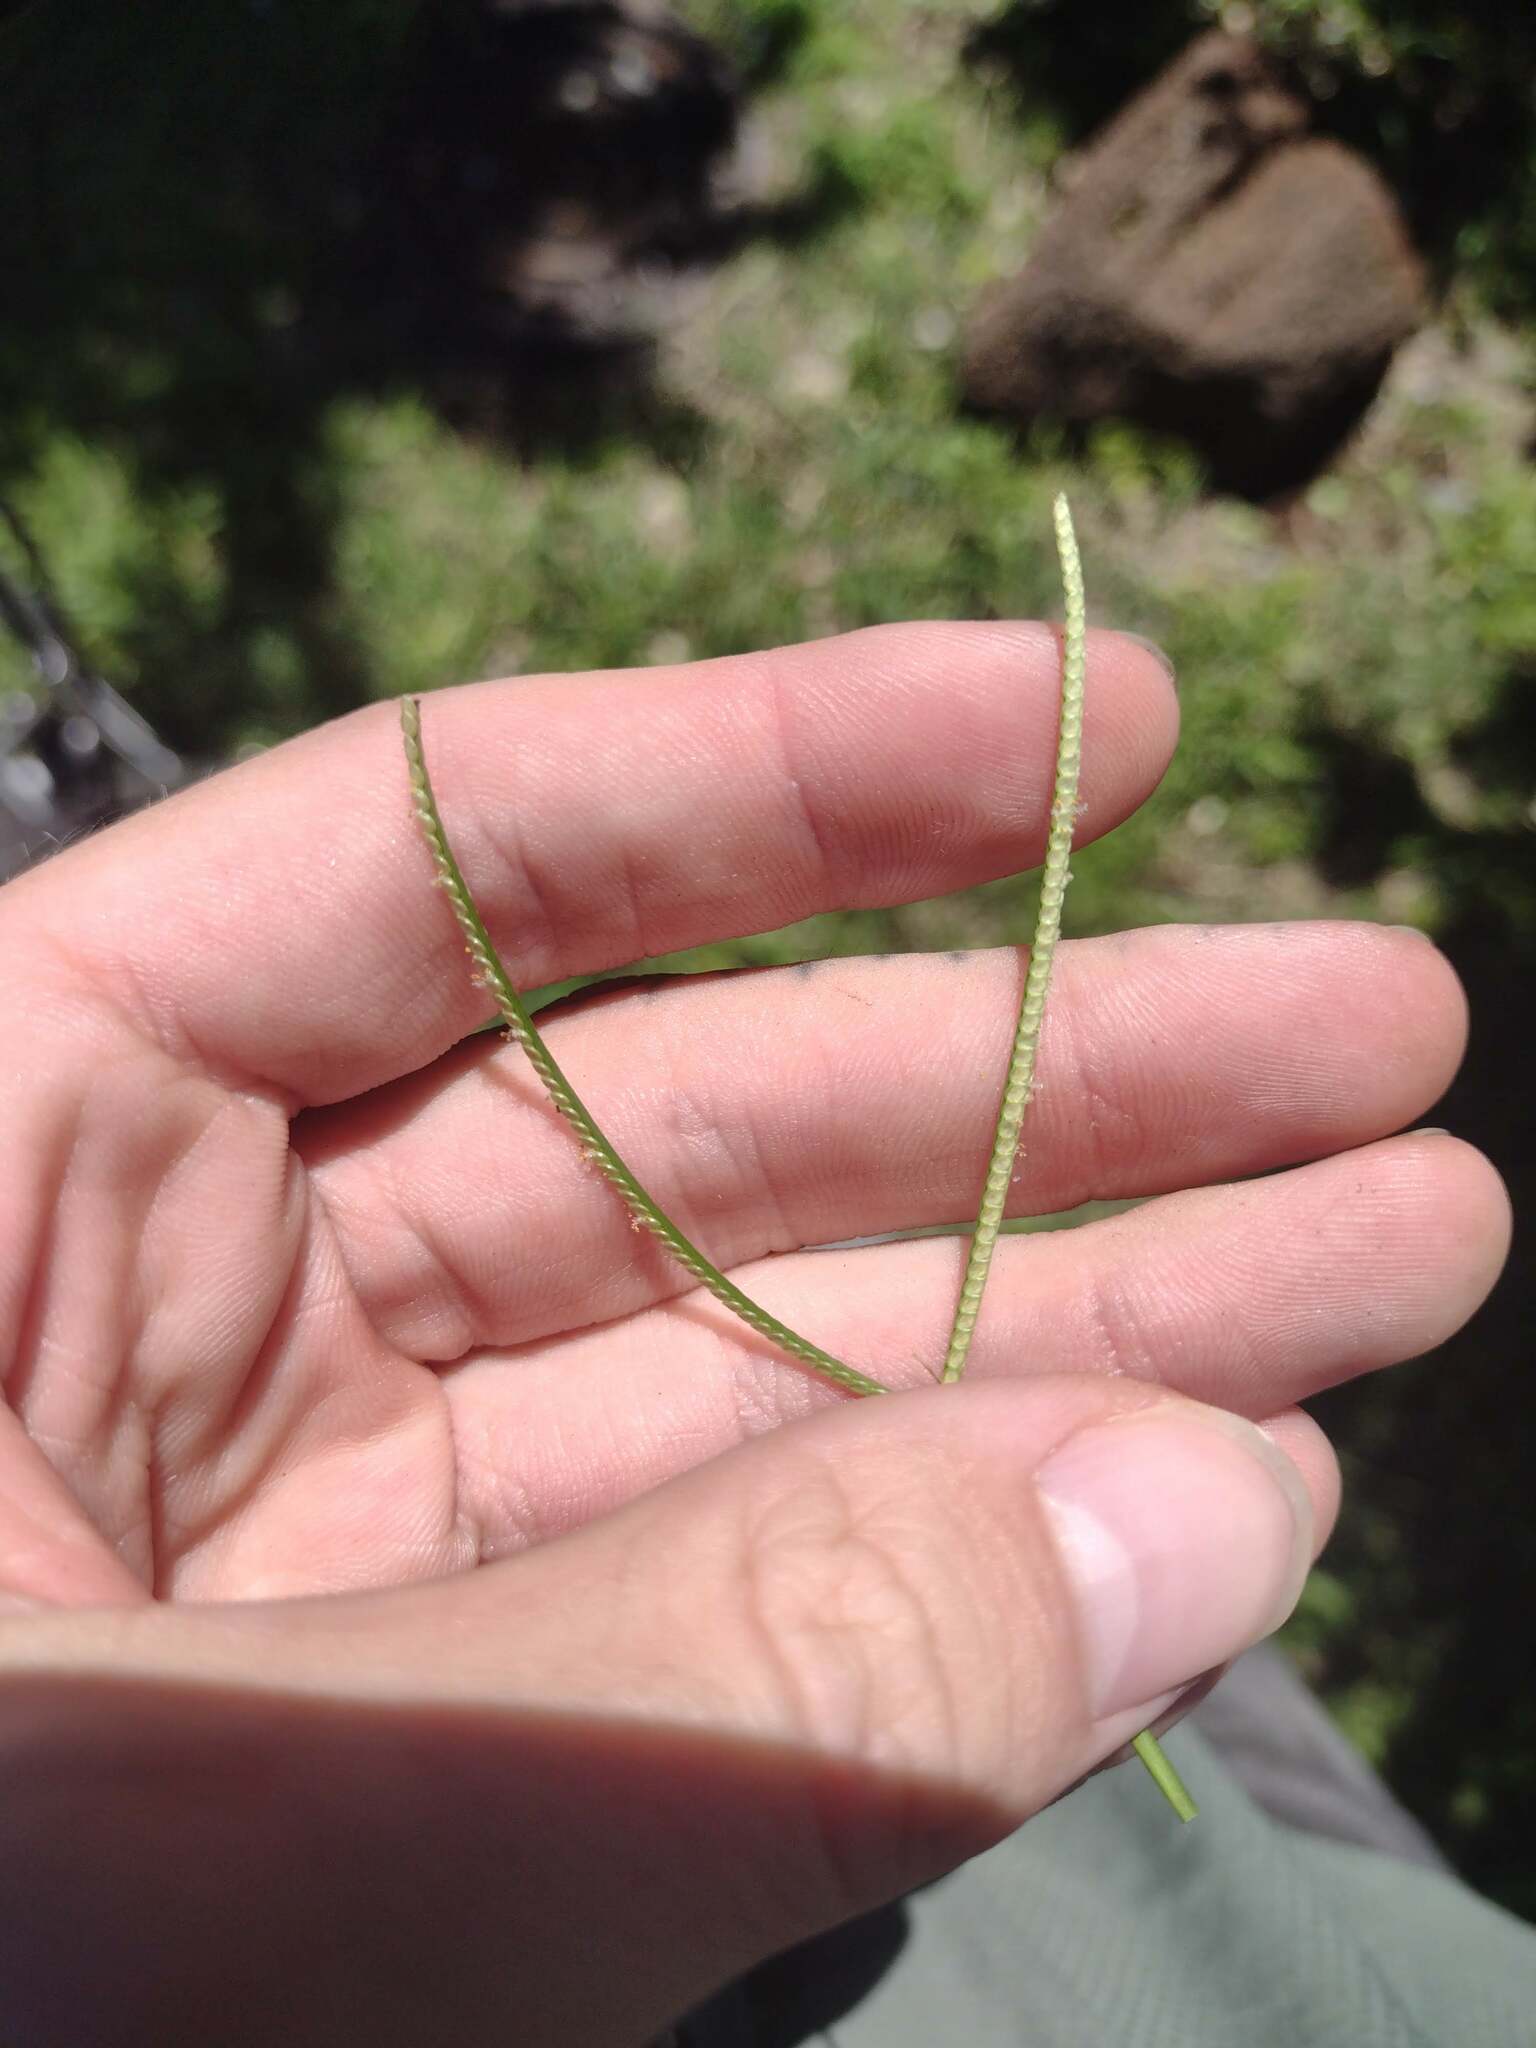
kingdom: Plantae
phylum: Tracheophyta
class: Liliopsida
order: Poales
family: Poaceae
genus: Paspalum
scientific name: Paspalum conjugatum
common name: Hilograss
